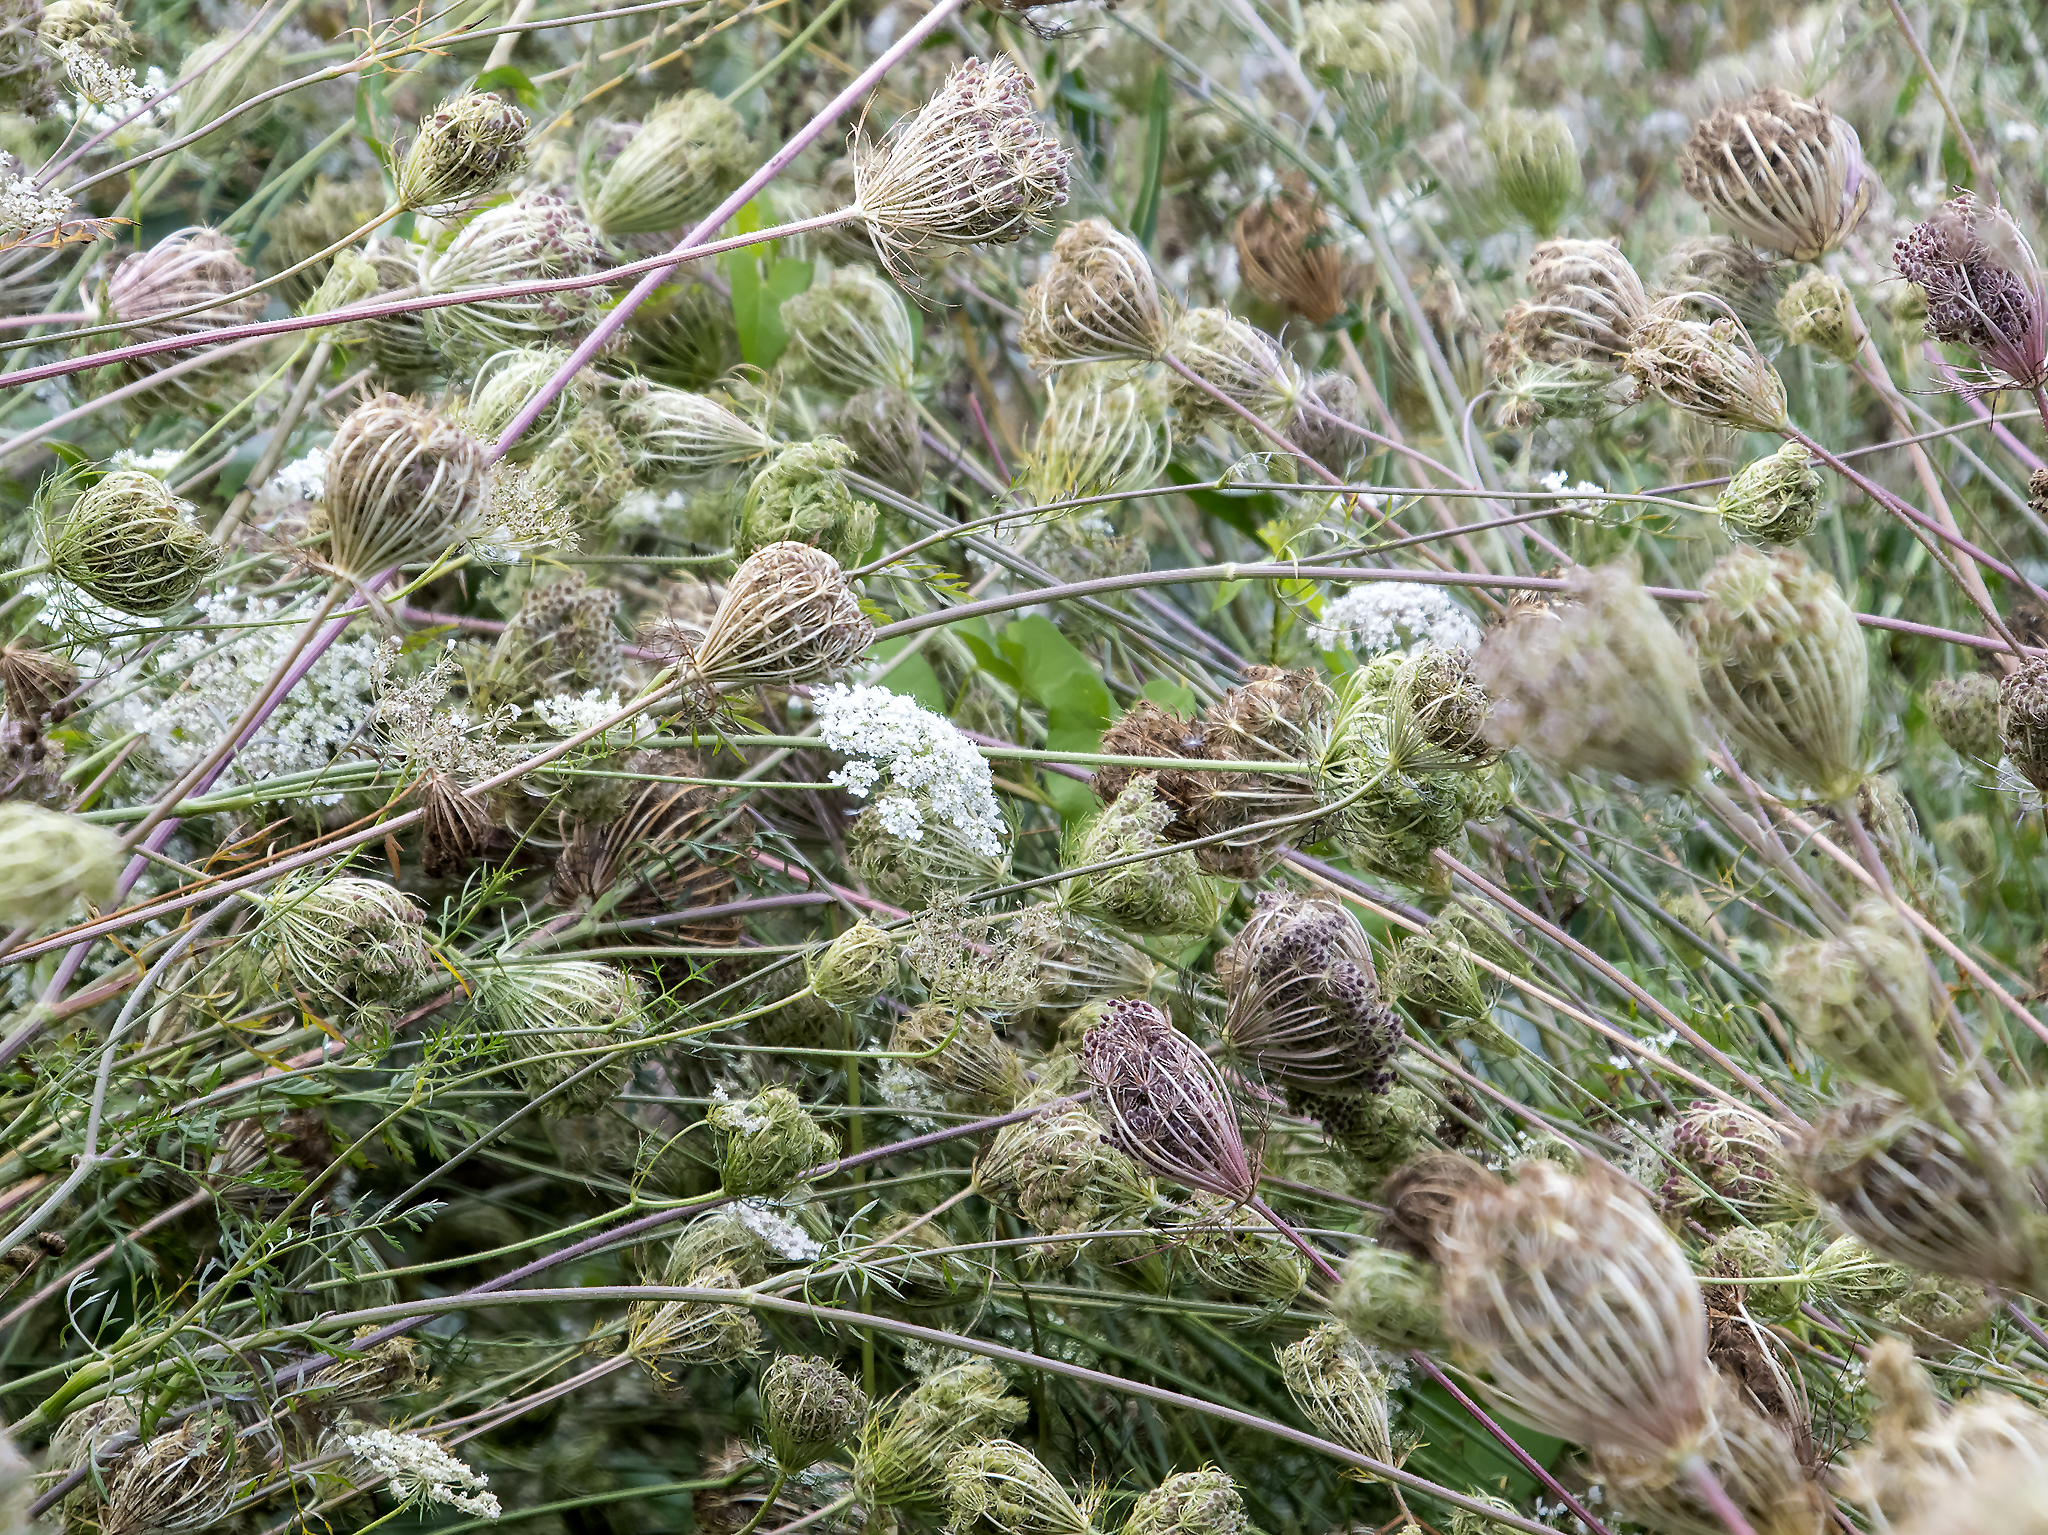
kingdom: Plantae
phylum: Tracheophyta
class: Magnoliopsida
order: Apiales
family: Apiaceae
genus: Daucus
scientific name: Daucus carota
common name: Wild carrot
